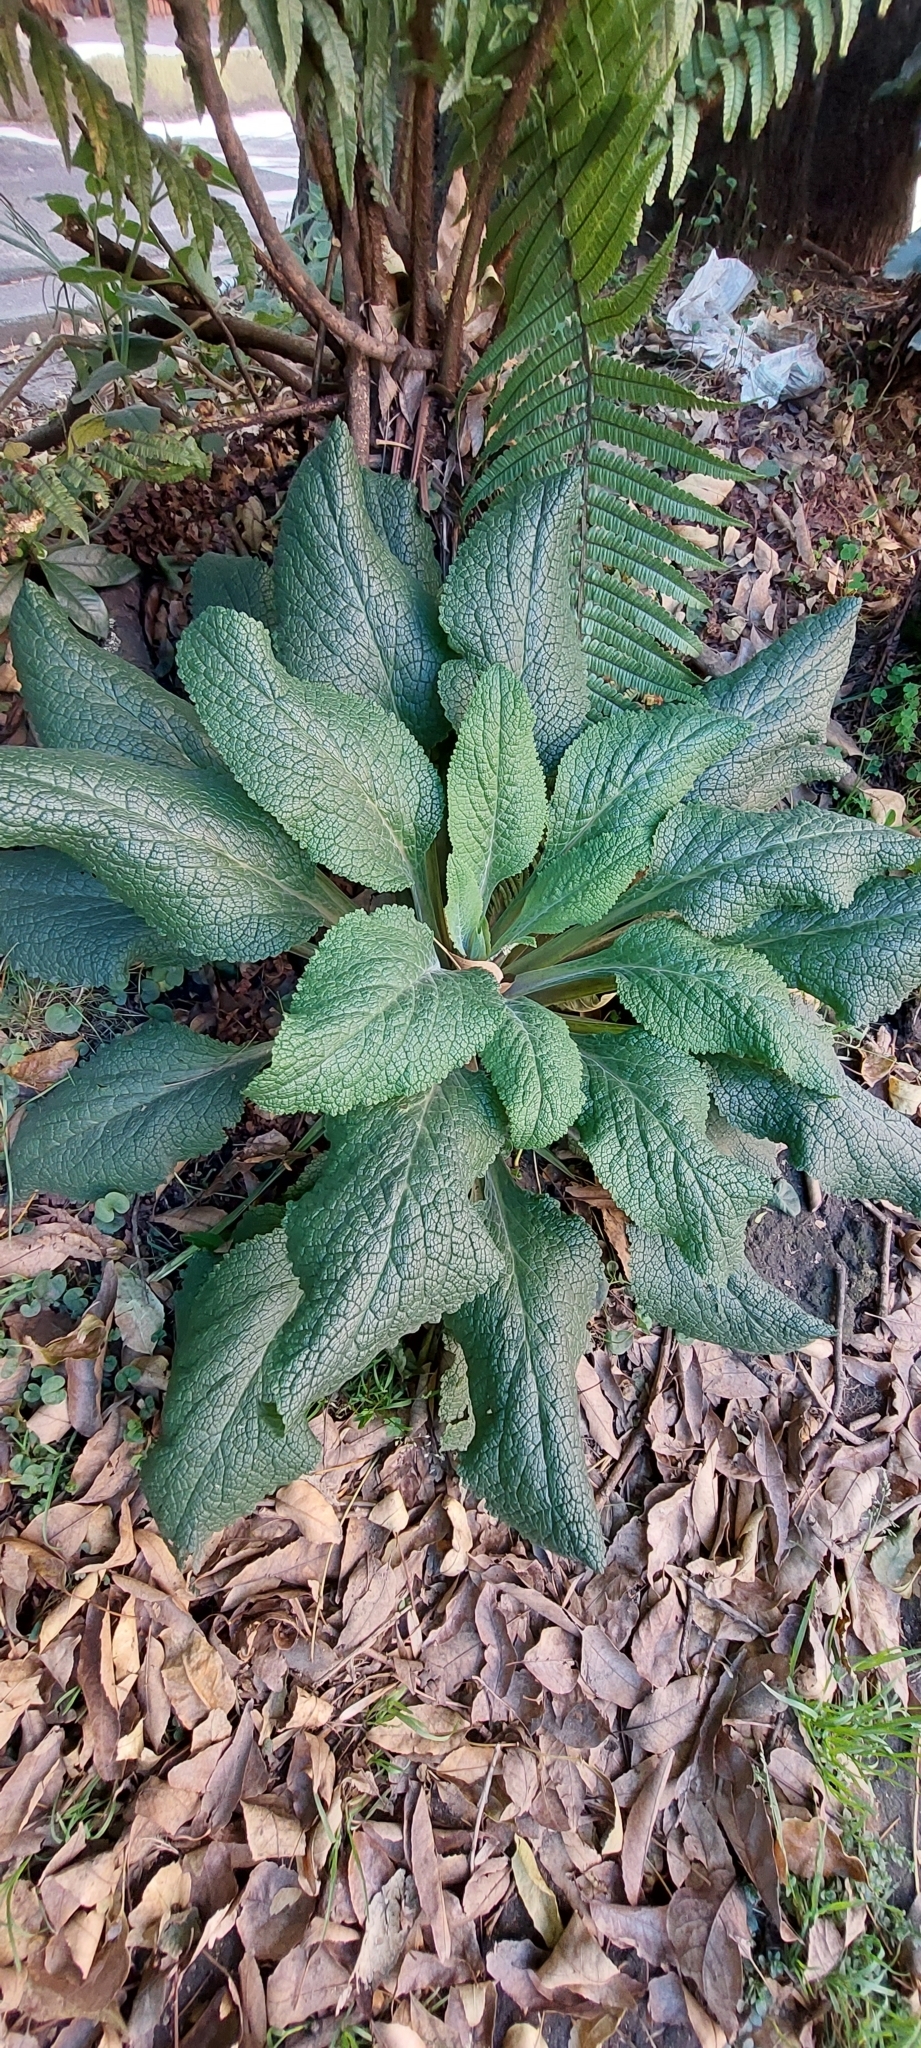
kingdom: Plantae
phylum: Tracheophyta
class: Magnoliopsida
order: Lamiales
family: Plantaginaceae
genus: Digitalis
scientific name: Digitalis purpurea
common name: Foxglove
